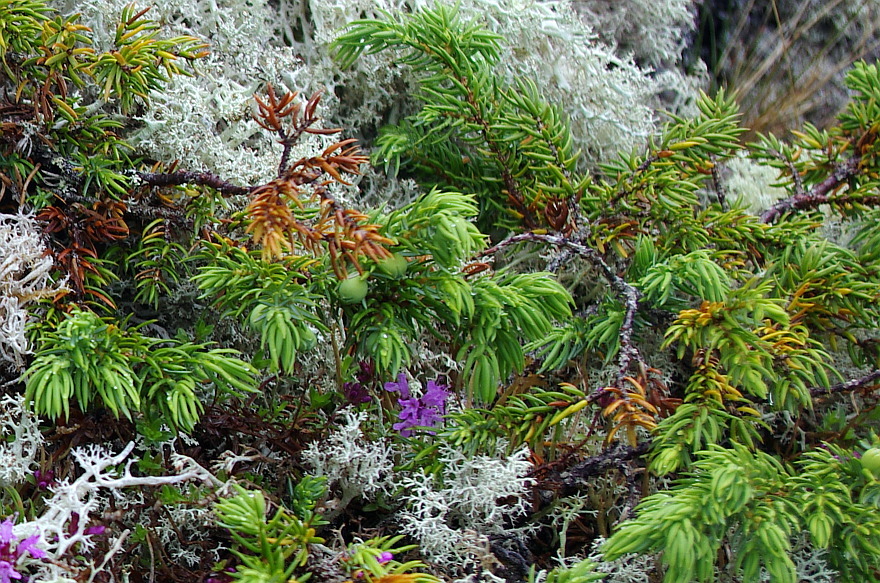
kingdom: Plantae
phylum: Tracheophyta
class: Pinopsida
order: Pinales
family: Cupressaceae
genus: Juniperus
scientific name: Juniperus communis
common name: Common juniper
